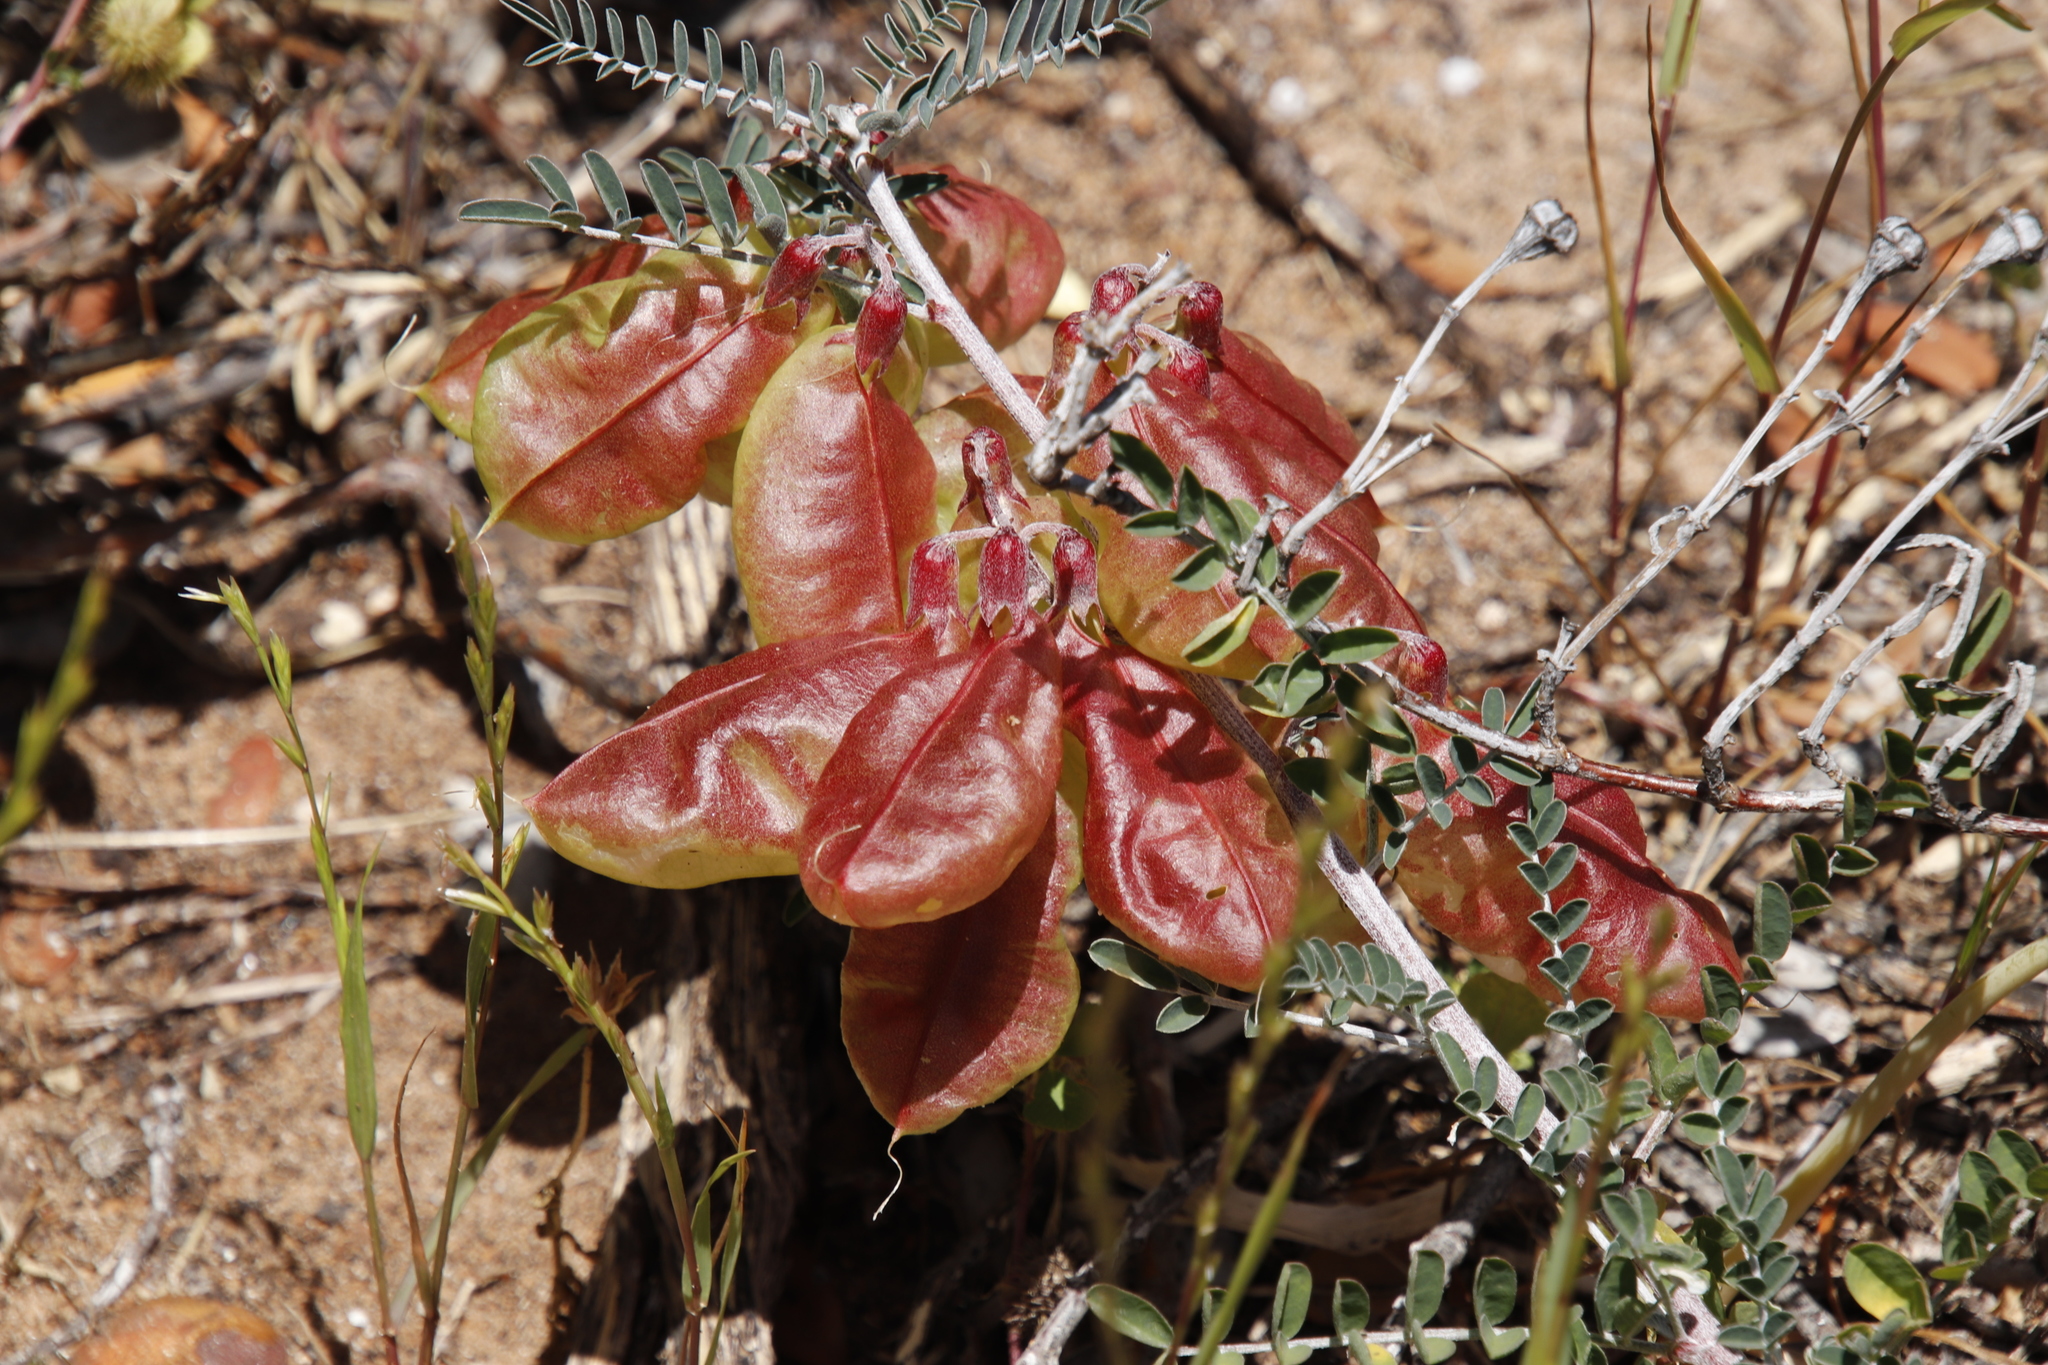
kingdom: Plantae
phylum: Tracheophyta
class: Magnoliopsida
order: Fabales
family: Fabaceae
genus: Lessertia
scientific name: Lessertia frutescens
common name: Balloon-pea
